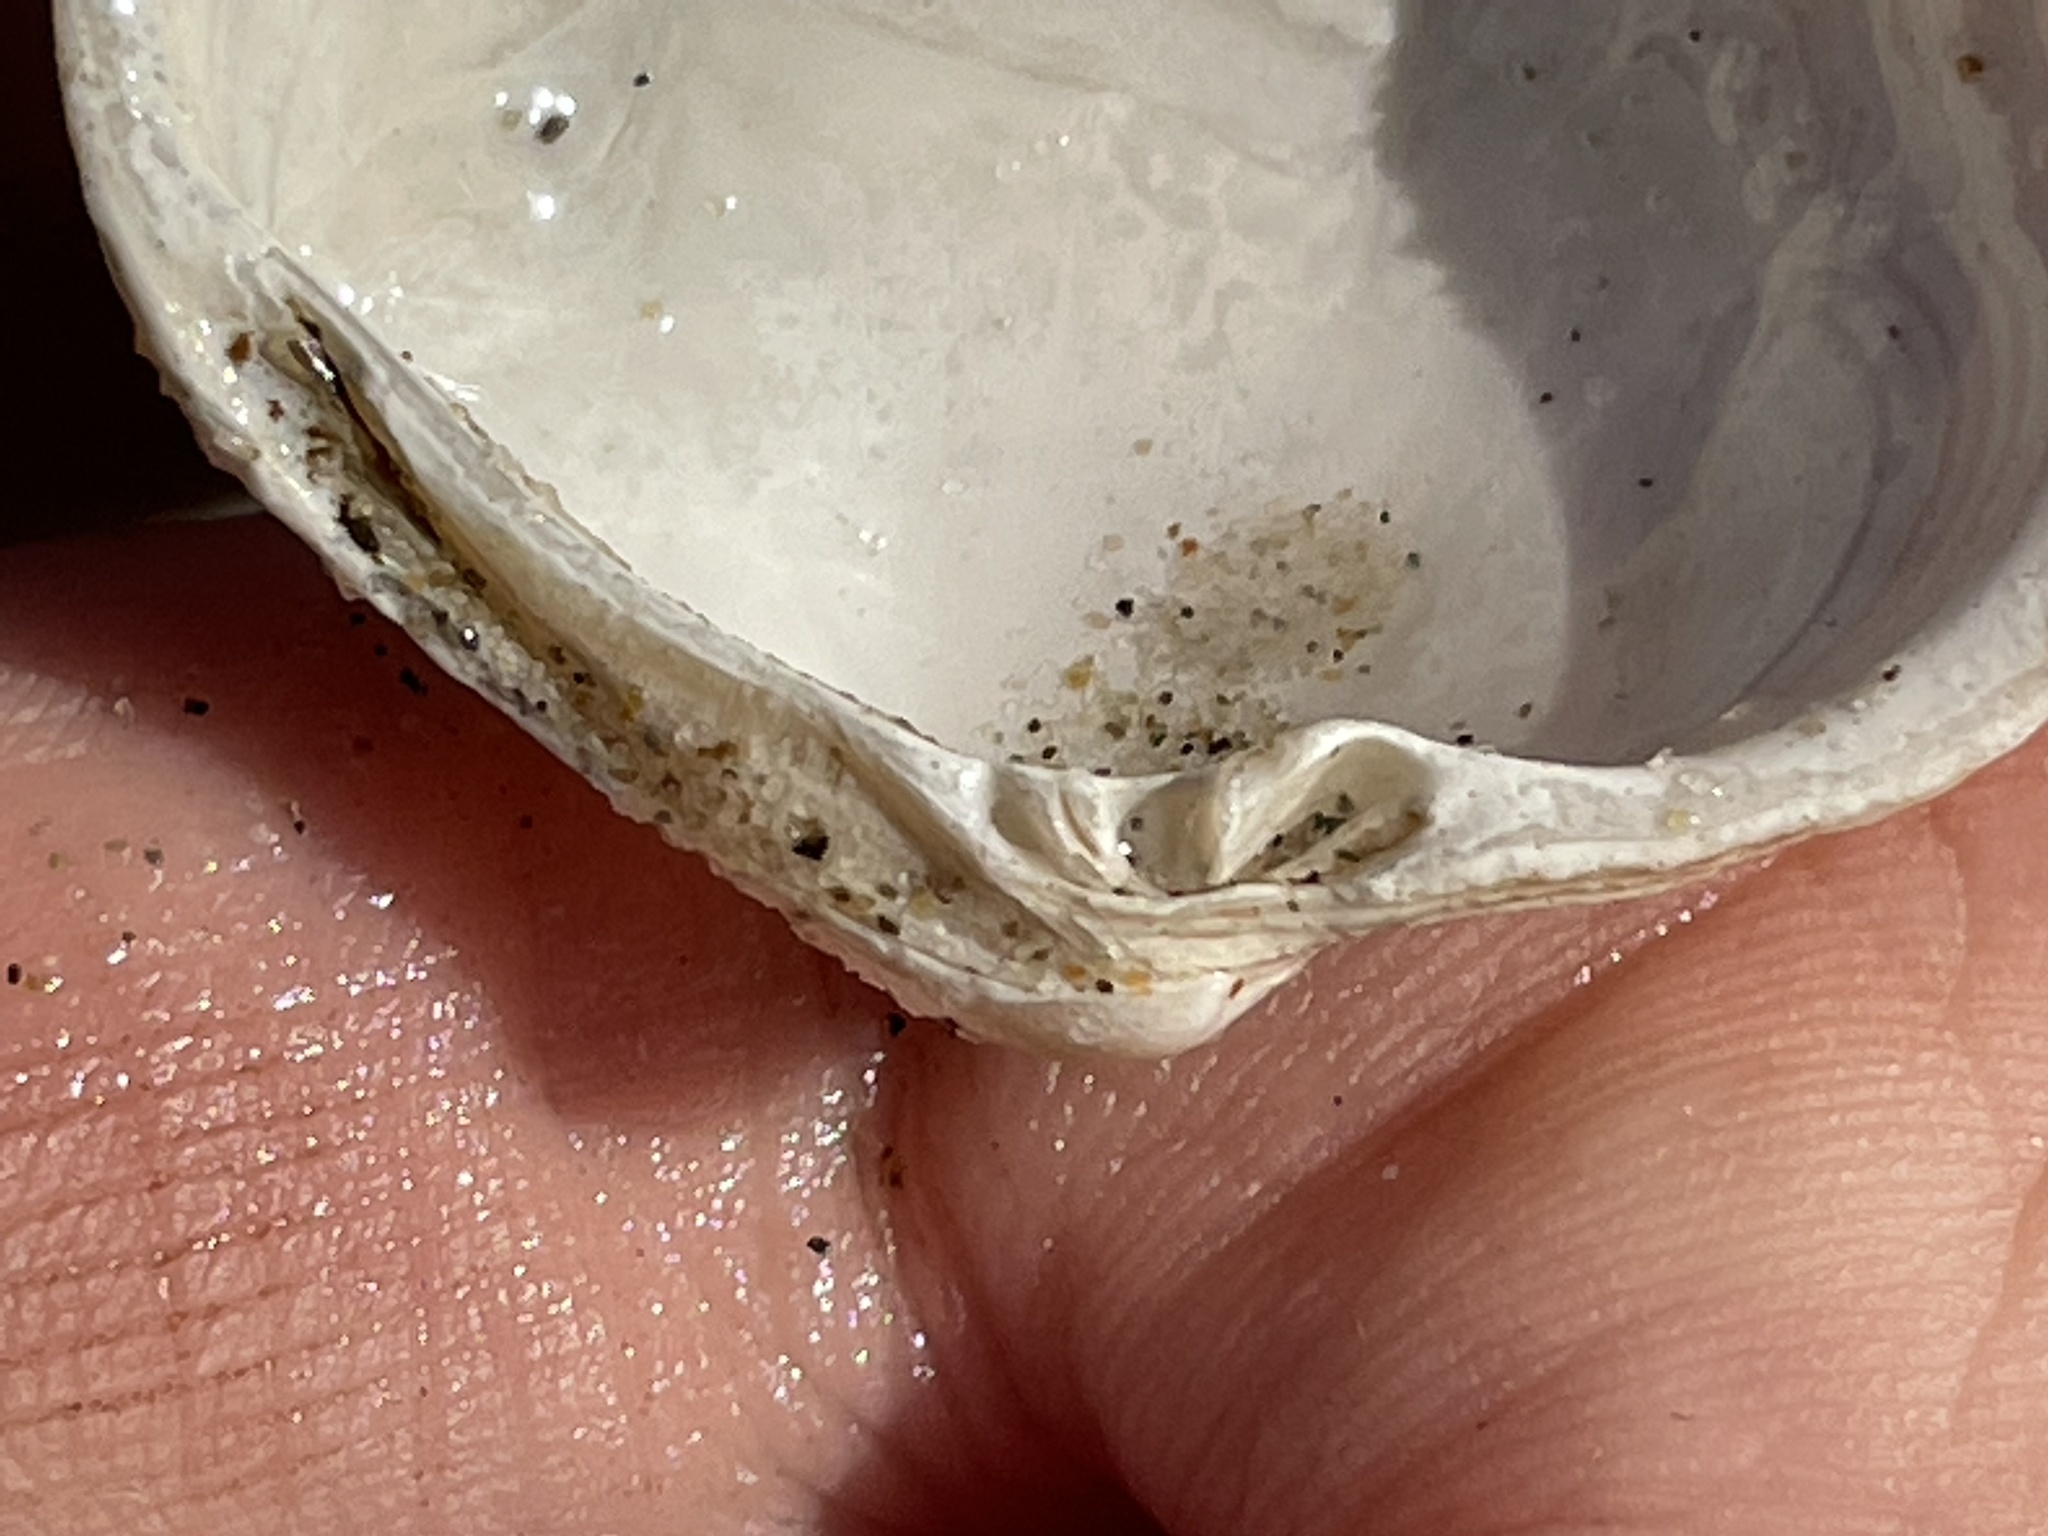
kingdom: Animalia
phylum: Mollusca
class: Bivalvia
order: Venerida
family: Veneridae
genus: Leukoma
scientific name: Leukoma staminea
